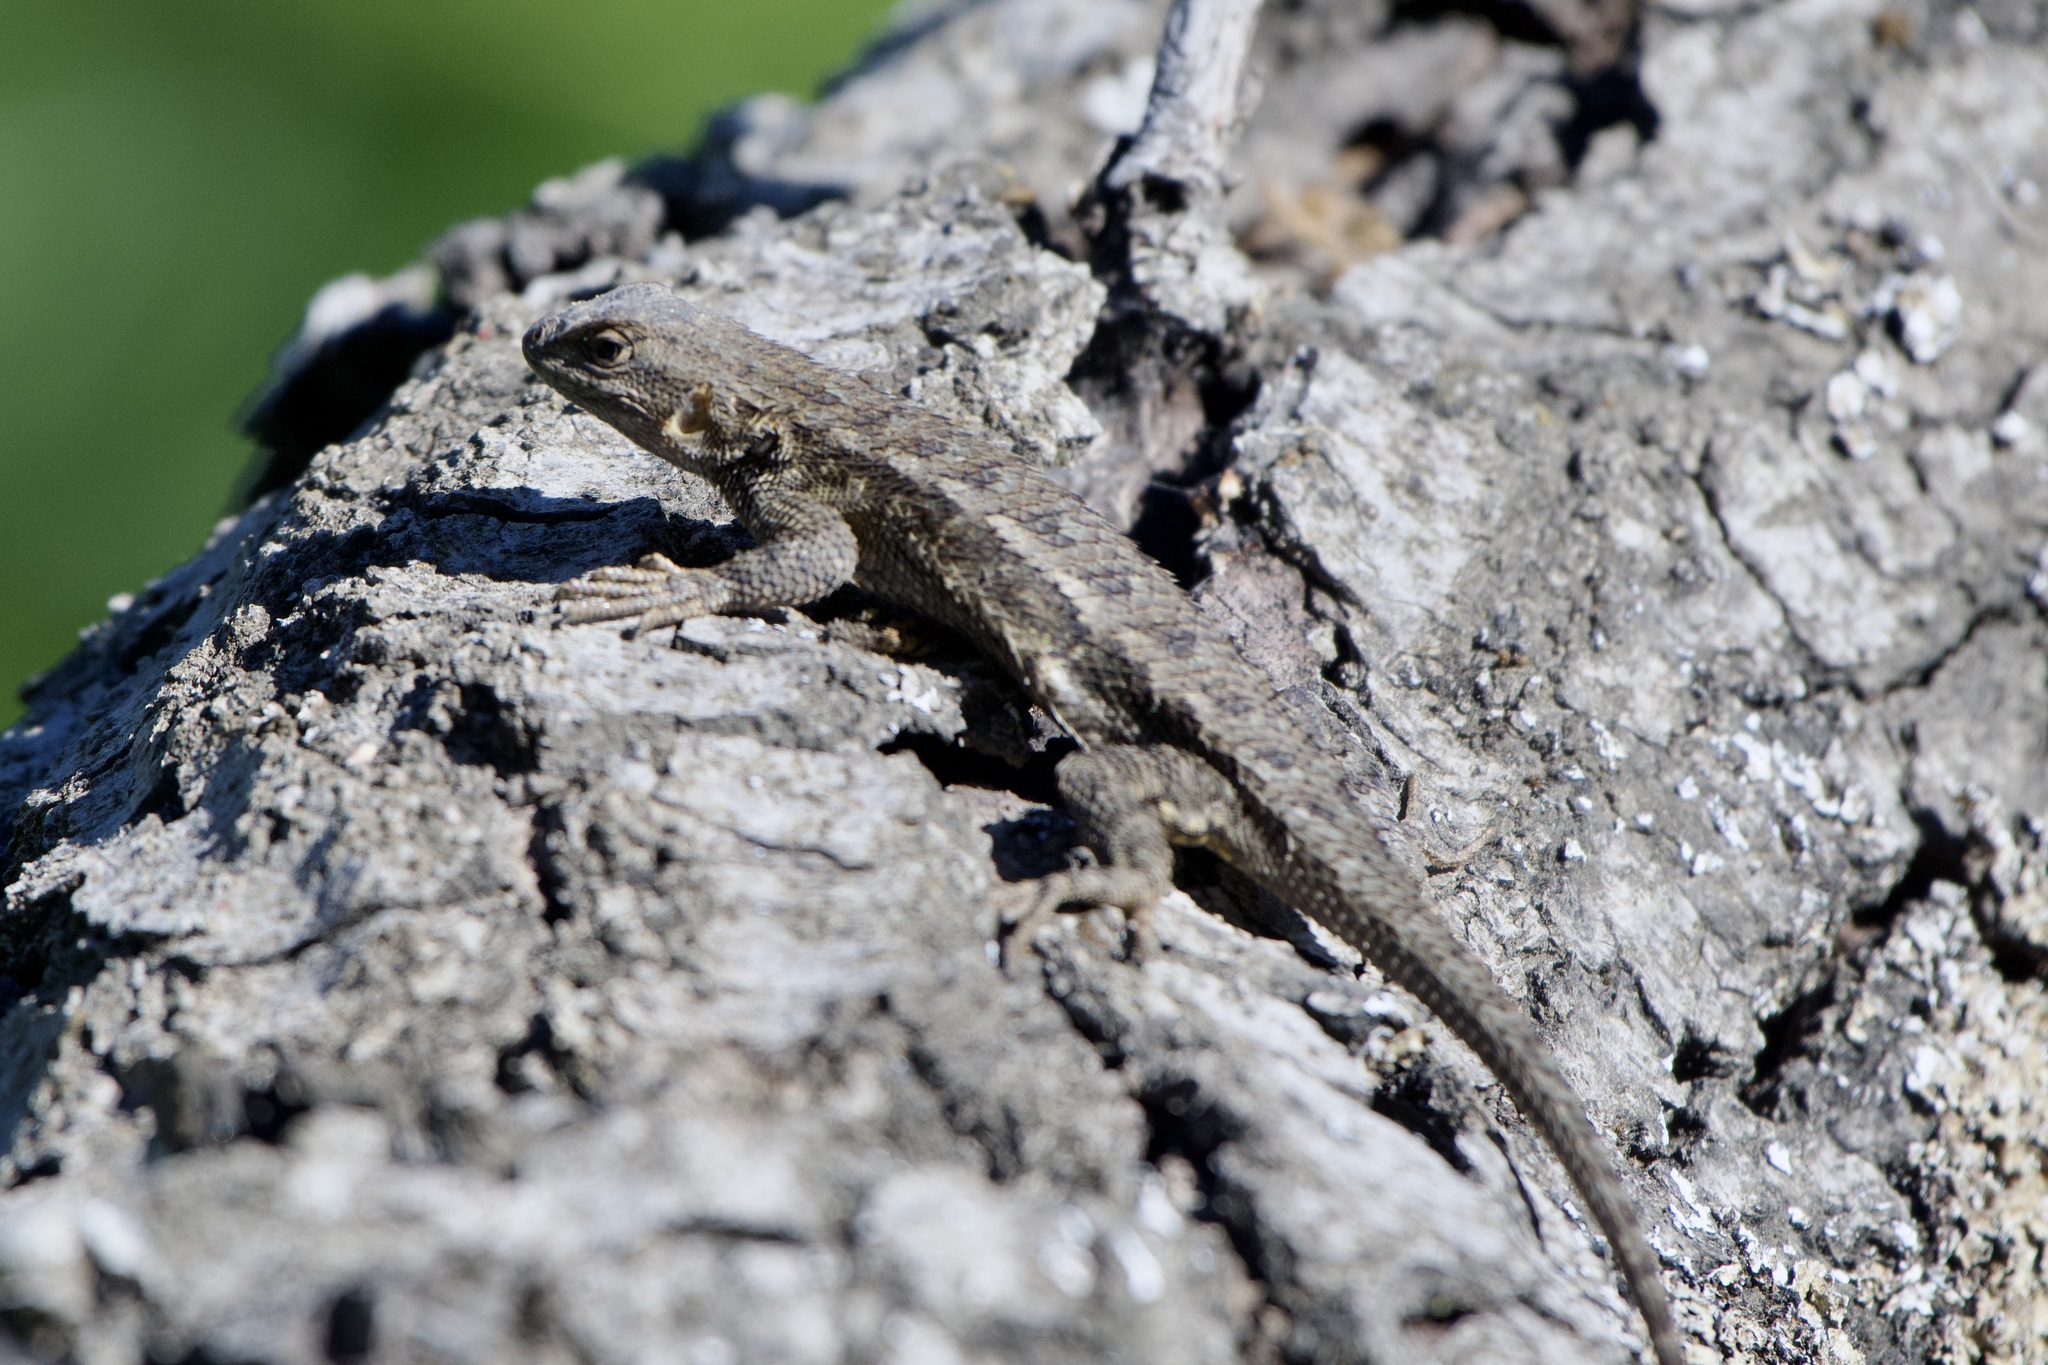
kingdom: Animalia
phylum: Chordata
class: Squamata
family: Phrynosomatidae
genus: Sceloporus
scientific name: Sceloporus occidentalis
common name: Western fence lizard
